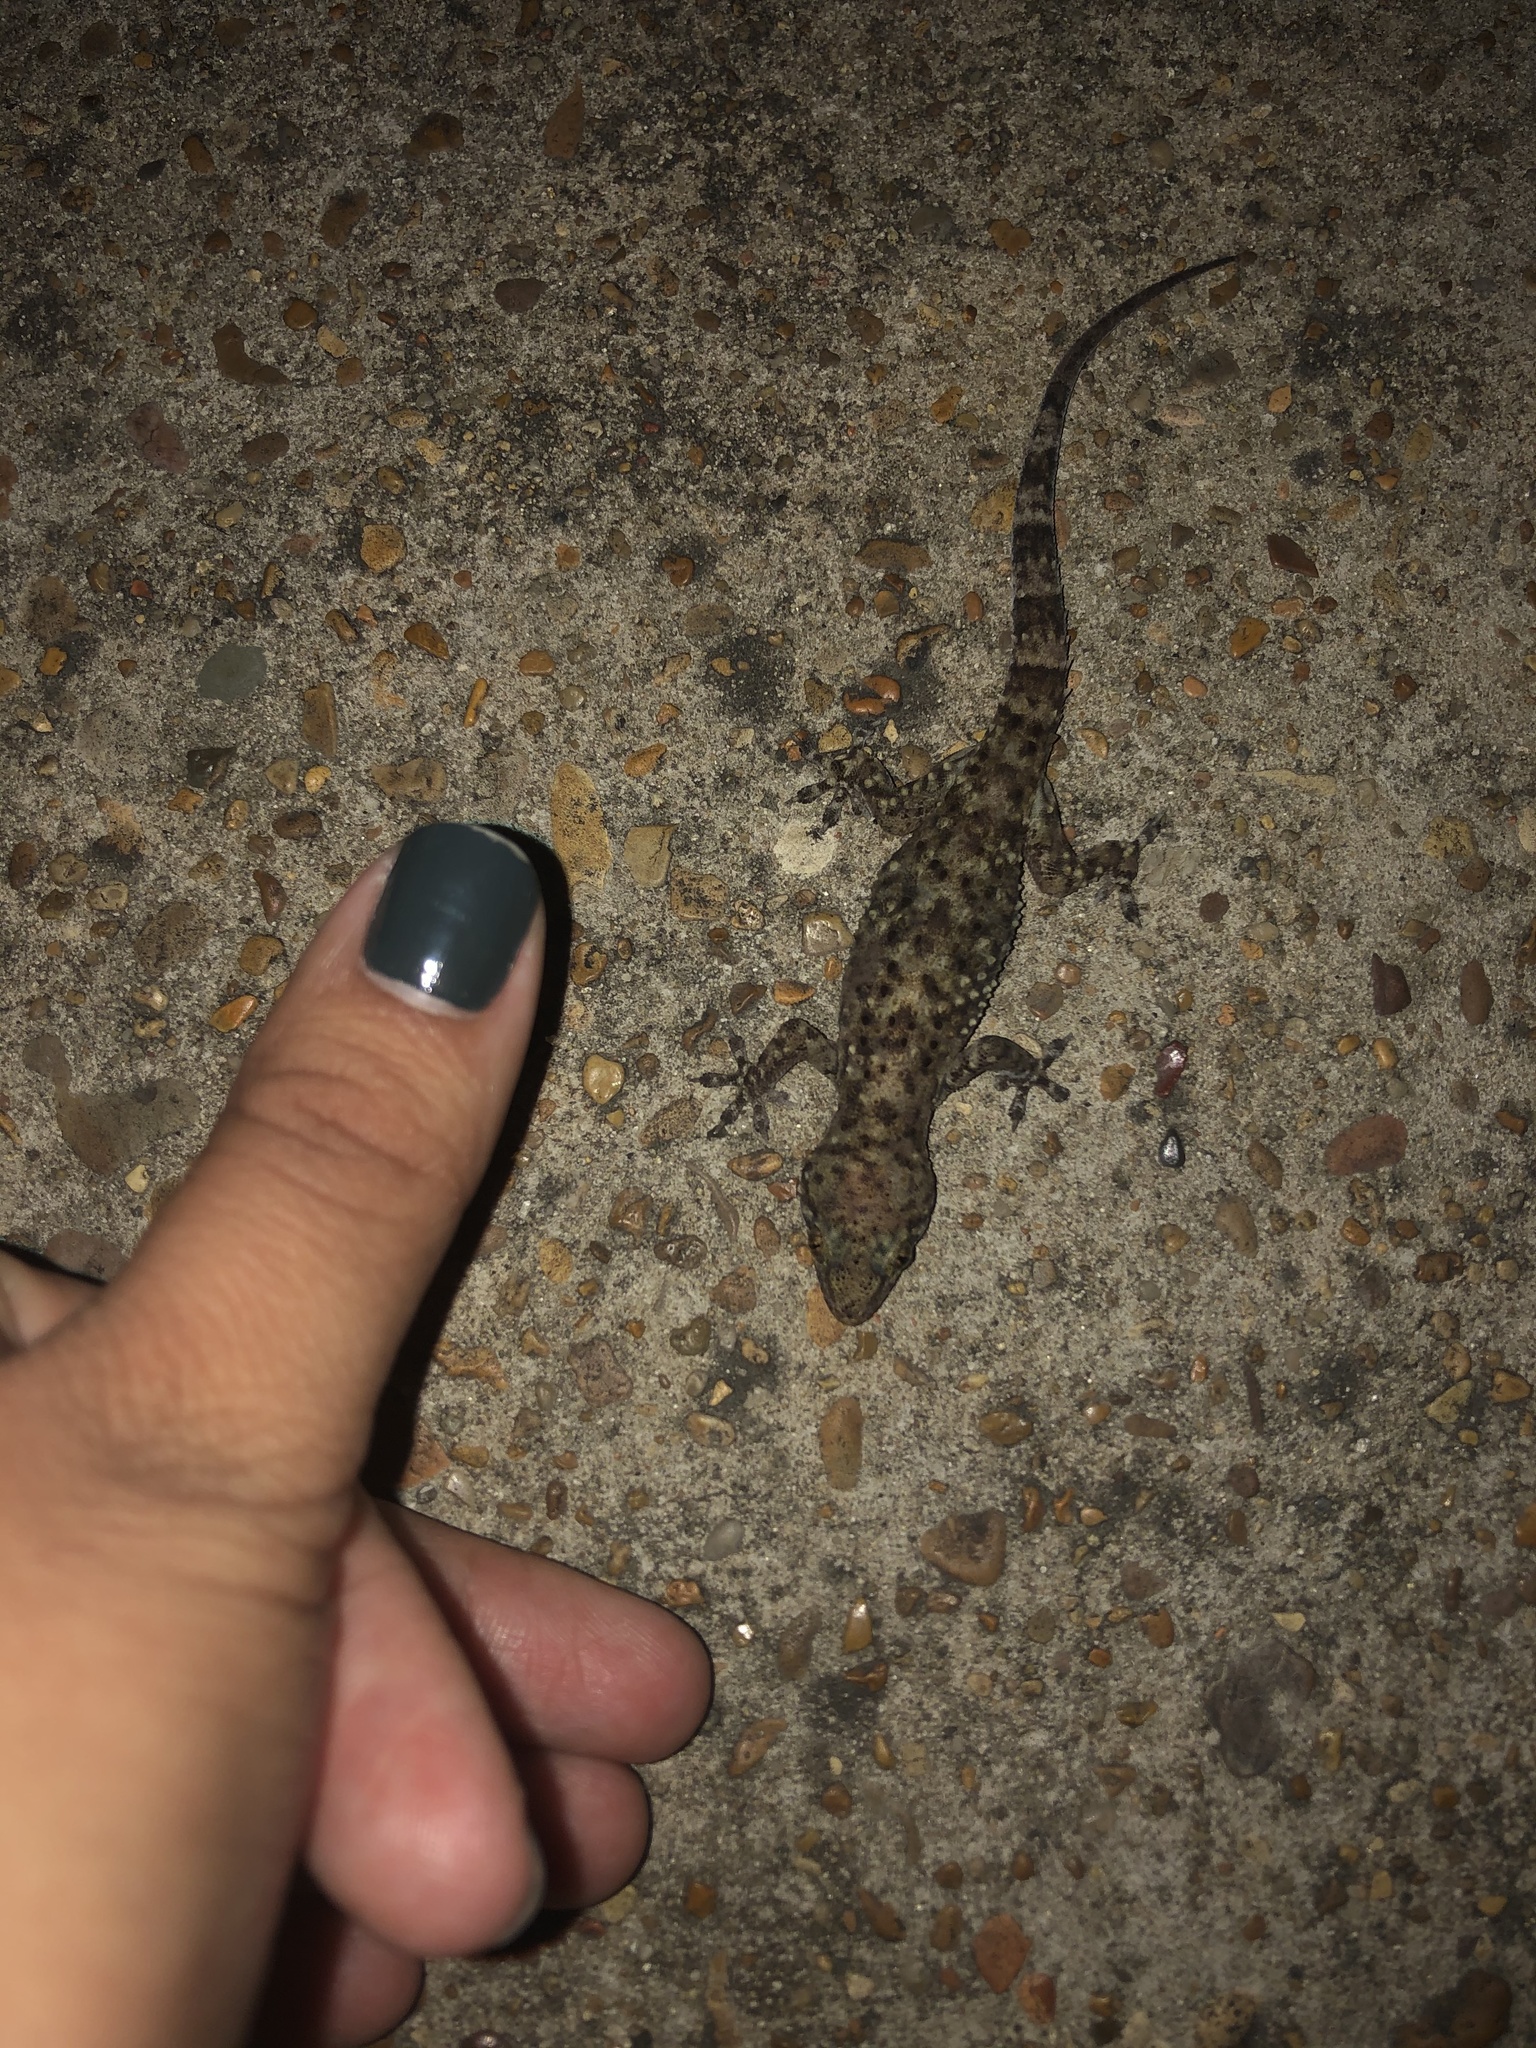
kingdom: Animalia
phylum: Chordata
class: Squamata
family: Gekkonidae
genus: Hemidactylus
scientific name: Hemidactylus turcicus
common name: Turkish gecko
